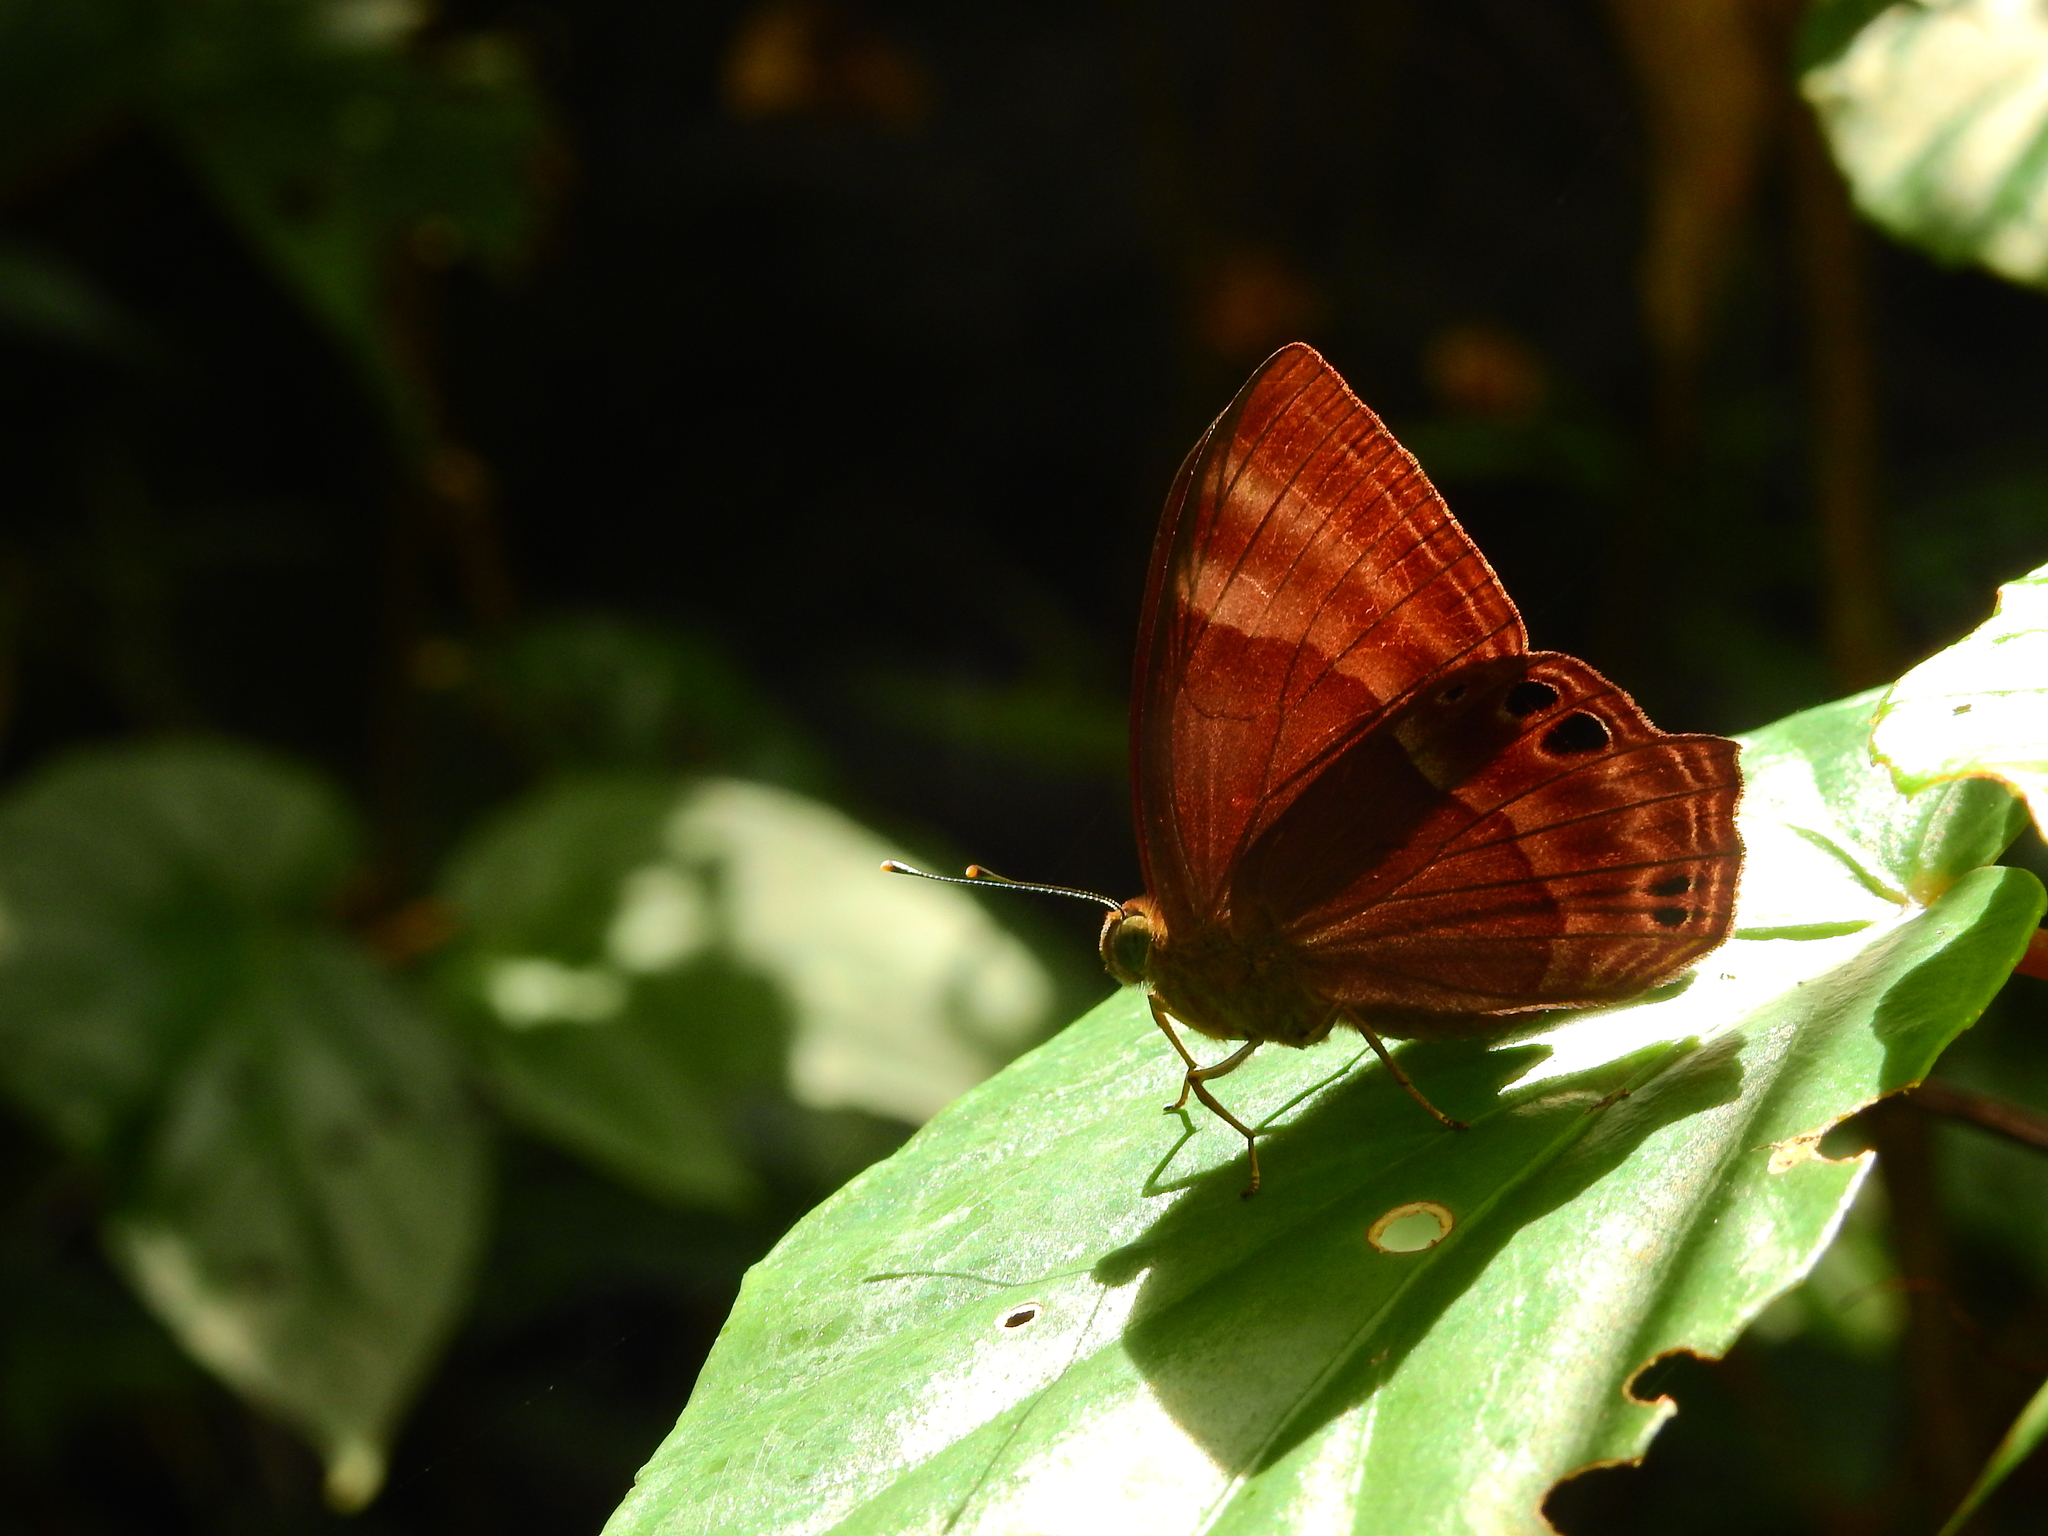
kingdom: Animalia
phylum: Arthropoda
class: Insecta
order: Lepidoptera
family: Lycaenidae
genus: Abisara
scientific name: Abisara echeria
